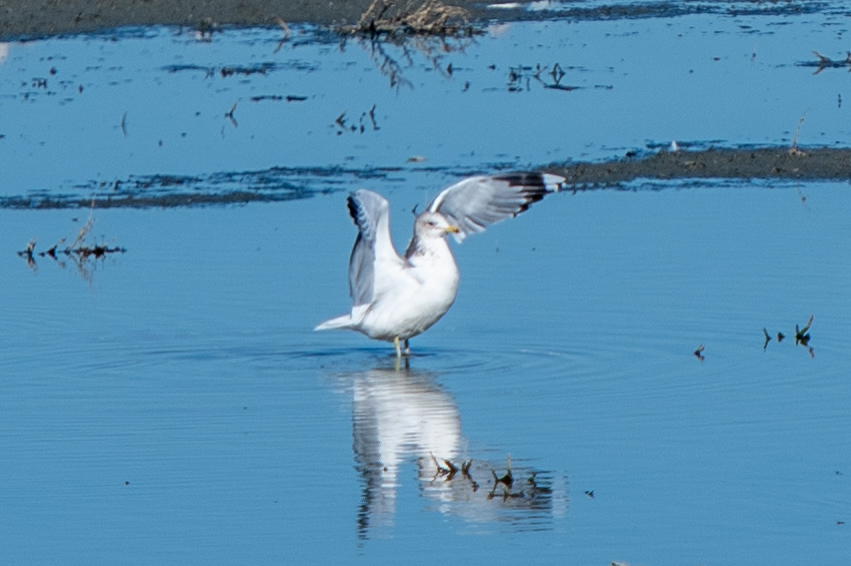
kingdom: Animalia
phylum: Chordata
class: Aves
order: Charadriiformes
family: Laridae
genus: Larus
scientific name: Larus californicus
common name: California gull
